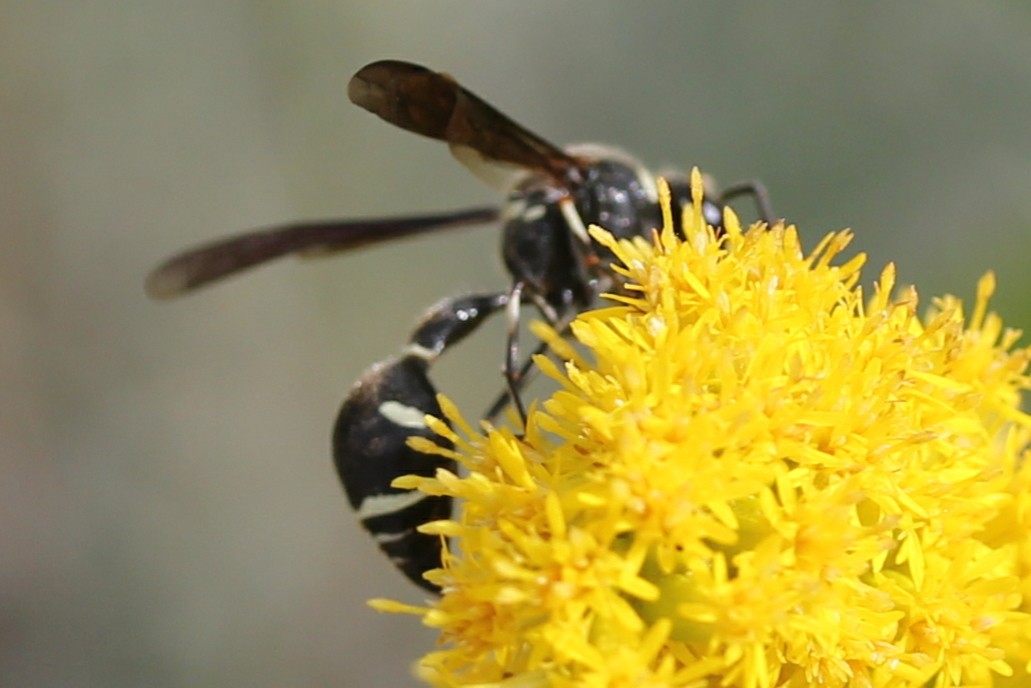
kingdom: Animalia
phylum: Arthropoda
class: Insecta
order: Hymenoptera
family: Vespidae
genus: Eumenes
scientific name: Eumenes fraternus
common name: Fraternal potter wasp
